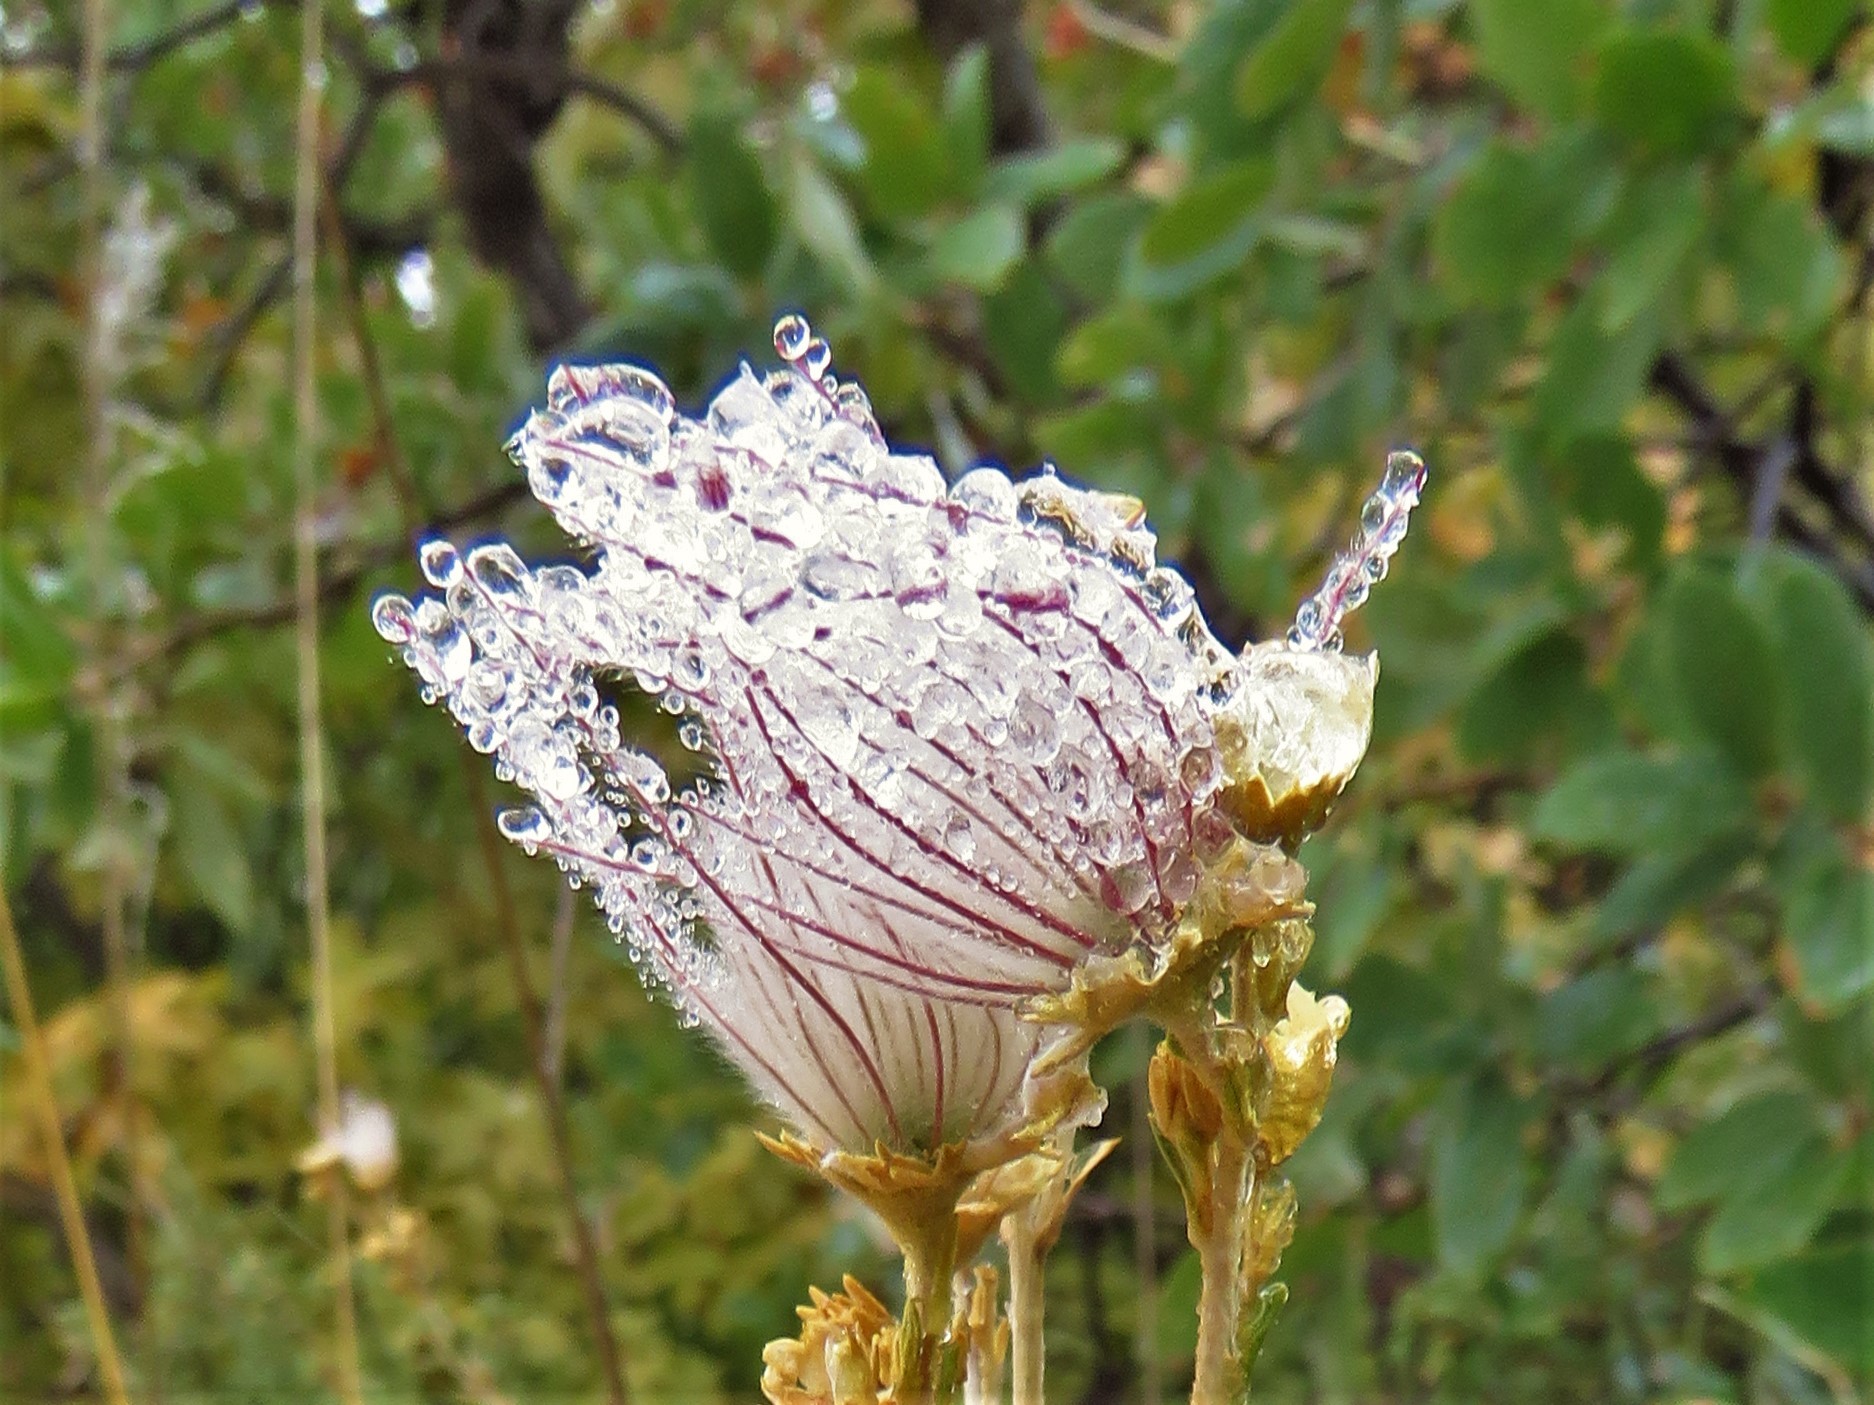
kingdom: Plantae
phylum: Tracheophyta
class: Magnoliopsida
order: Rosales
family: Rosaceae
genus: Fallugia
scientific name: Fallugia paradoxa
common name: Apache-plume
